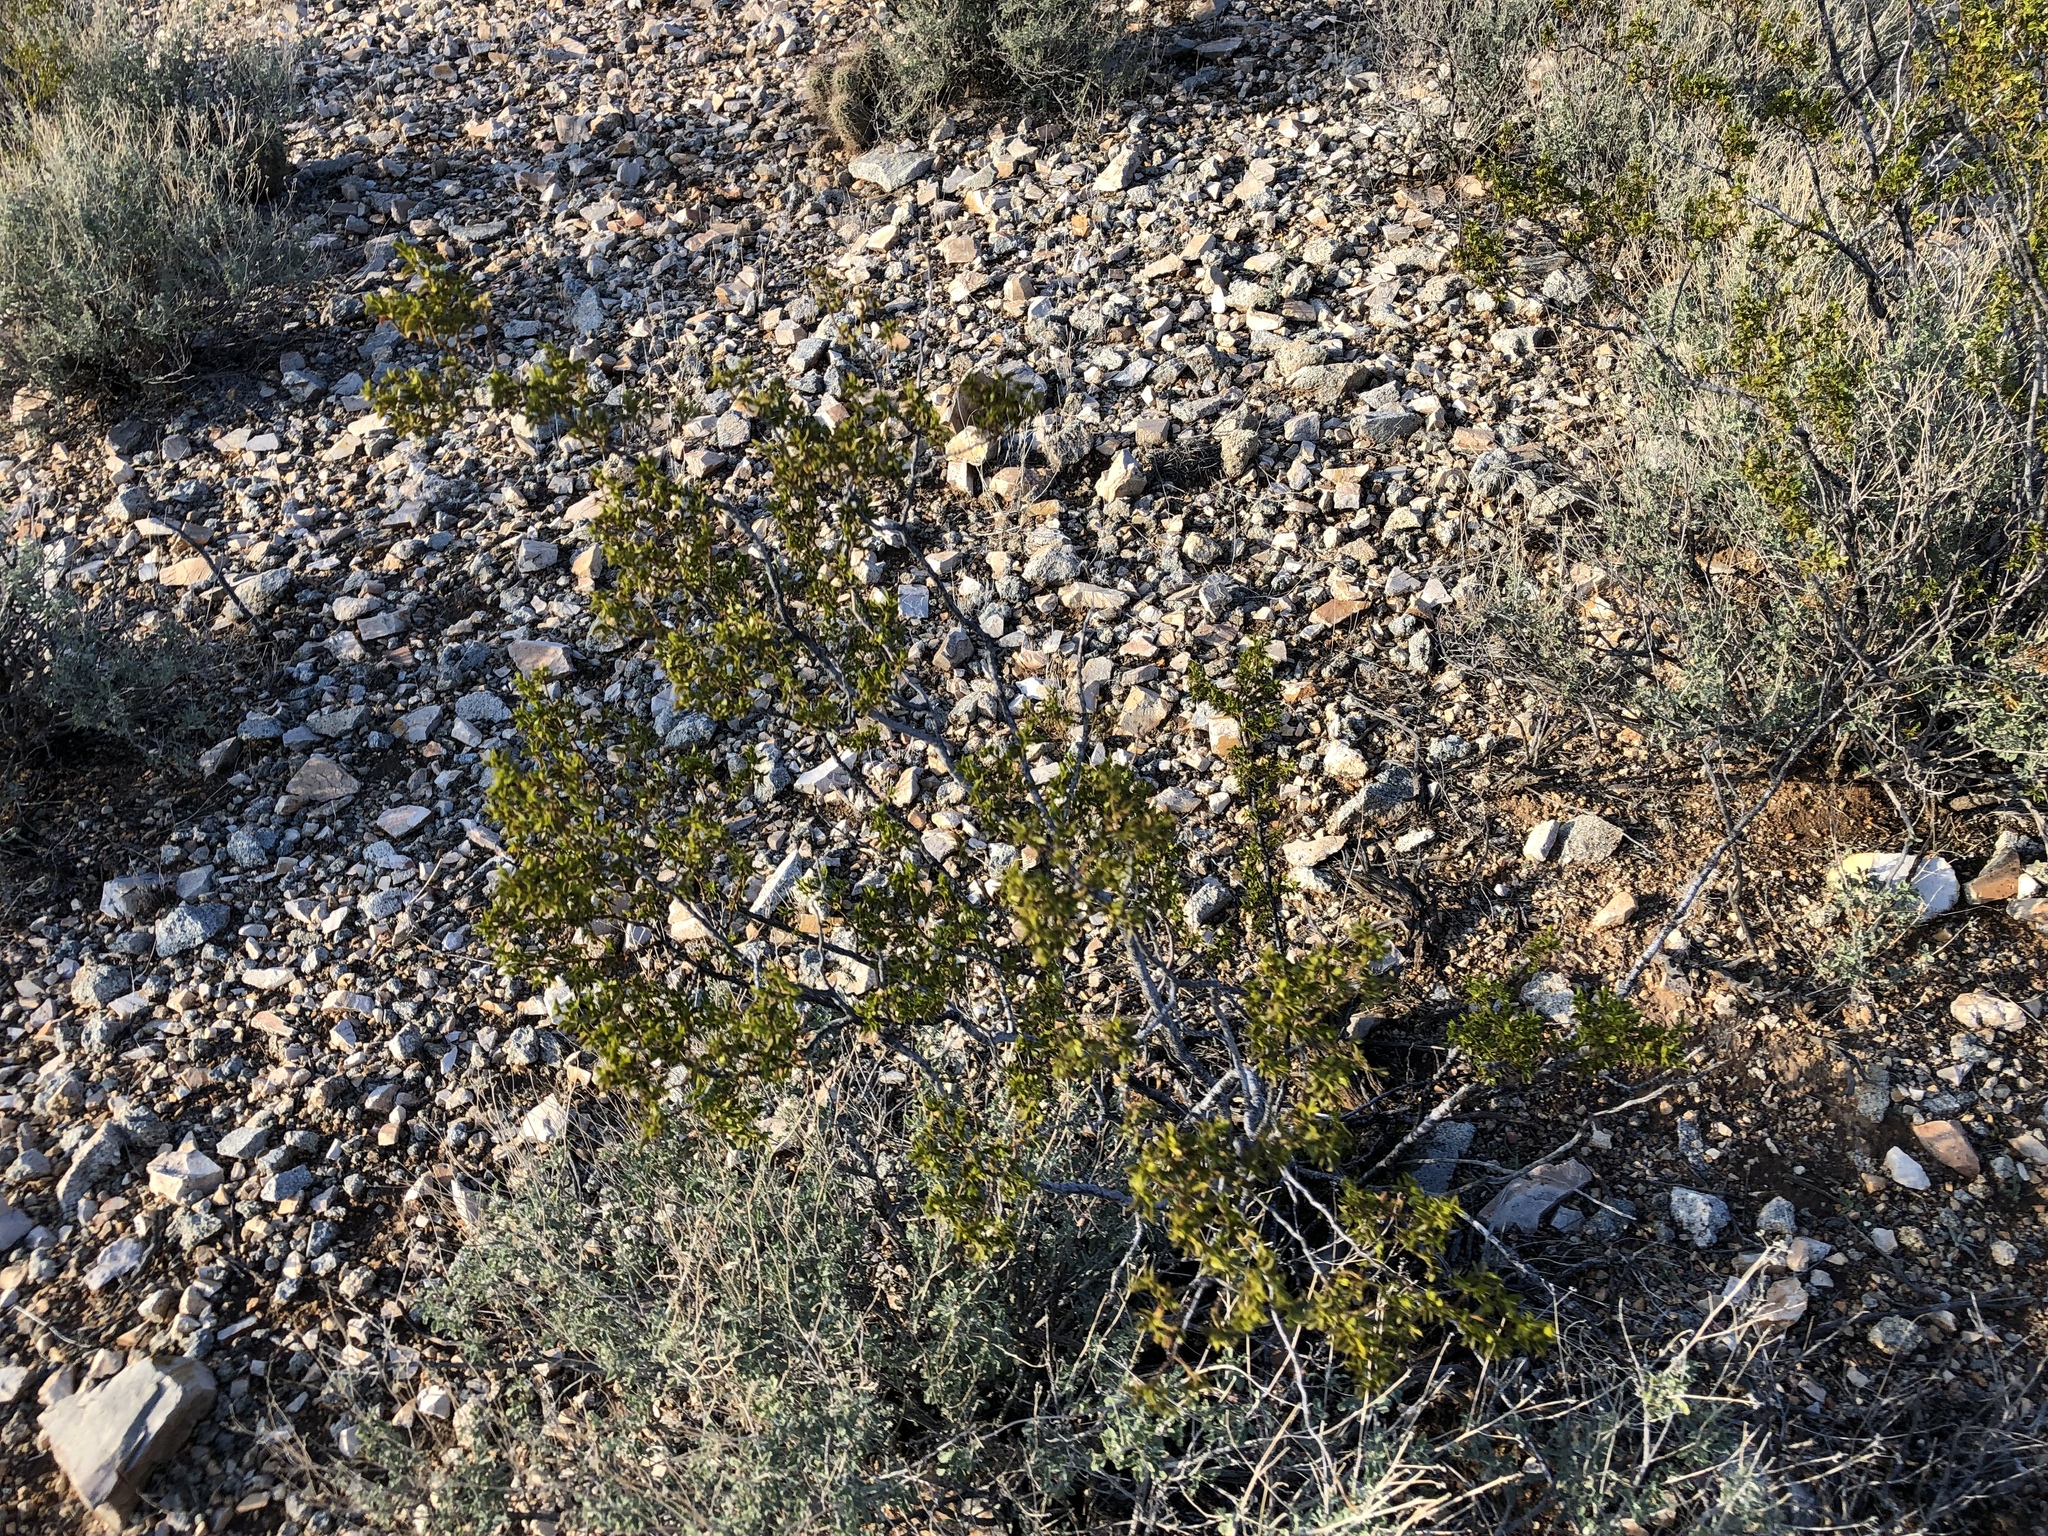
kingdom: Plantae
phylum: Tracheophyta
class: Magnoliopsida
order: Zygophyllales
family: Zygophyllaceae
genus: Larrea
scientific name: Larrea tridentata
